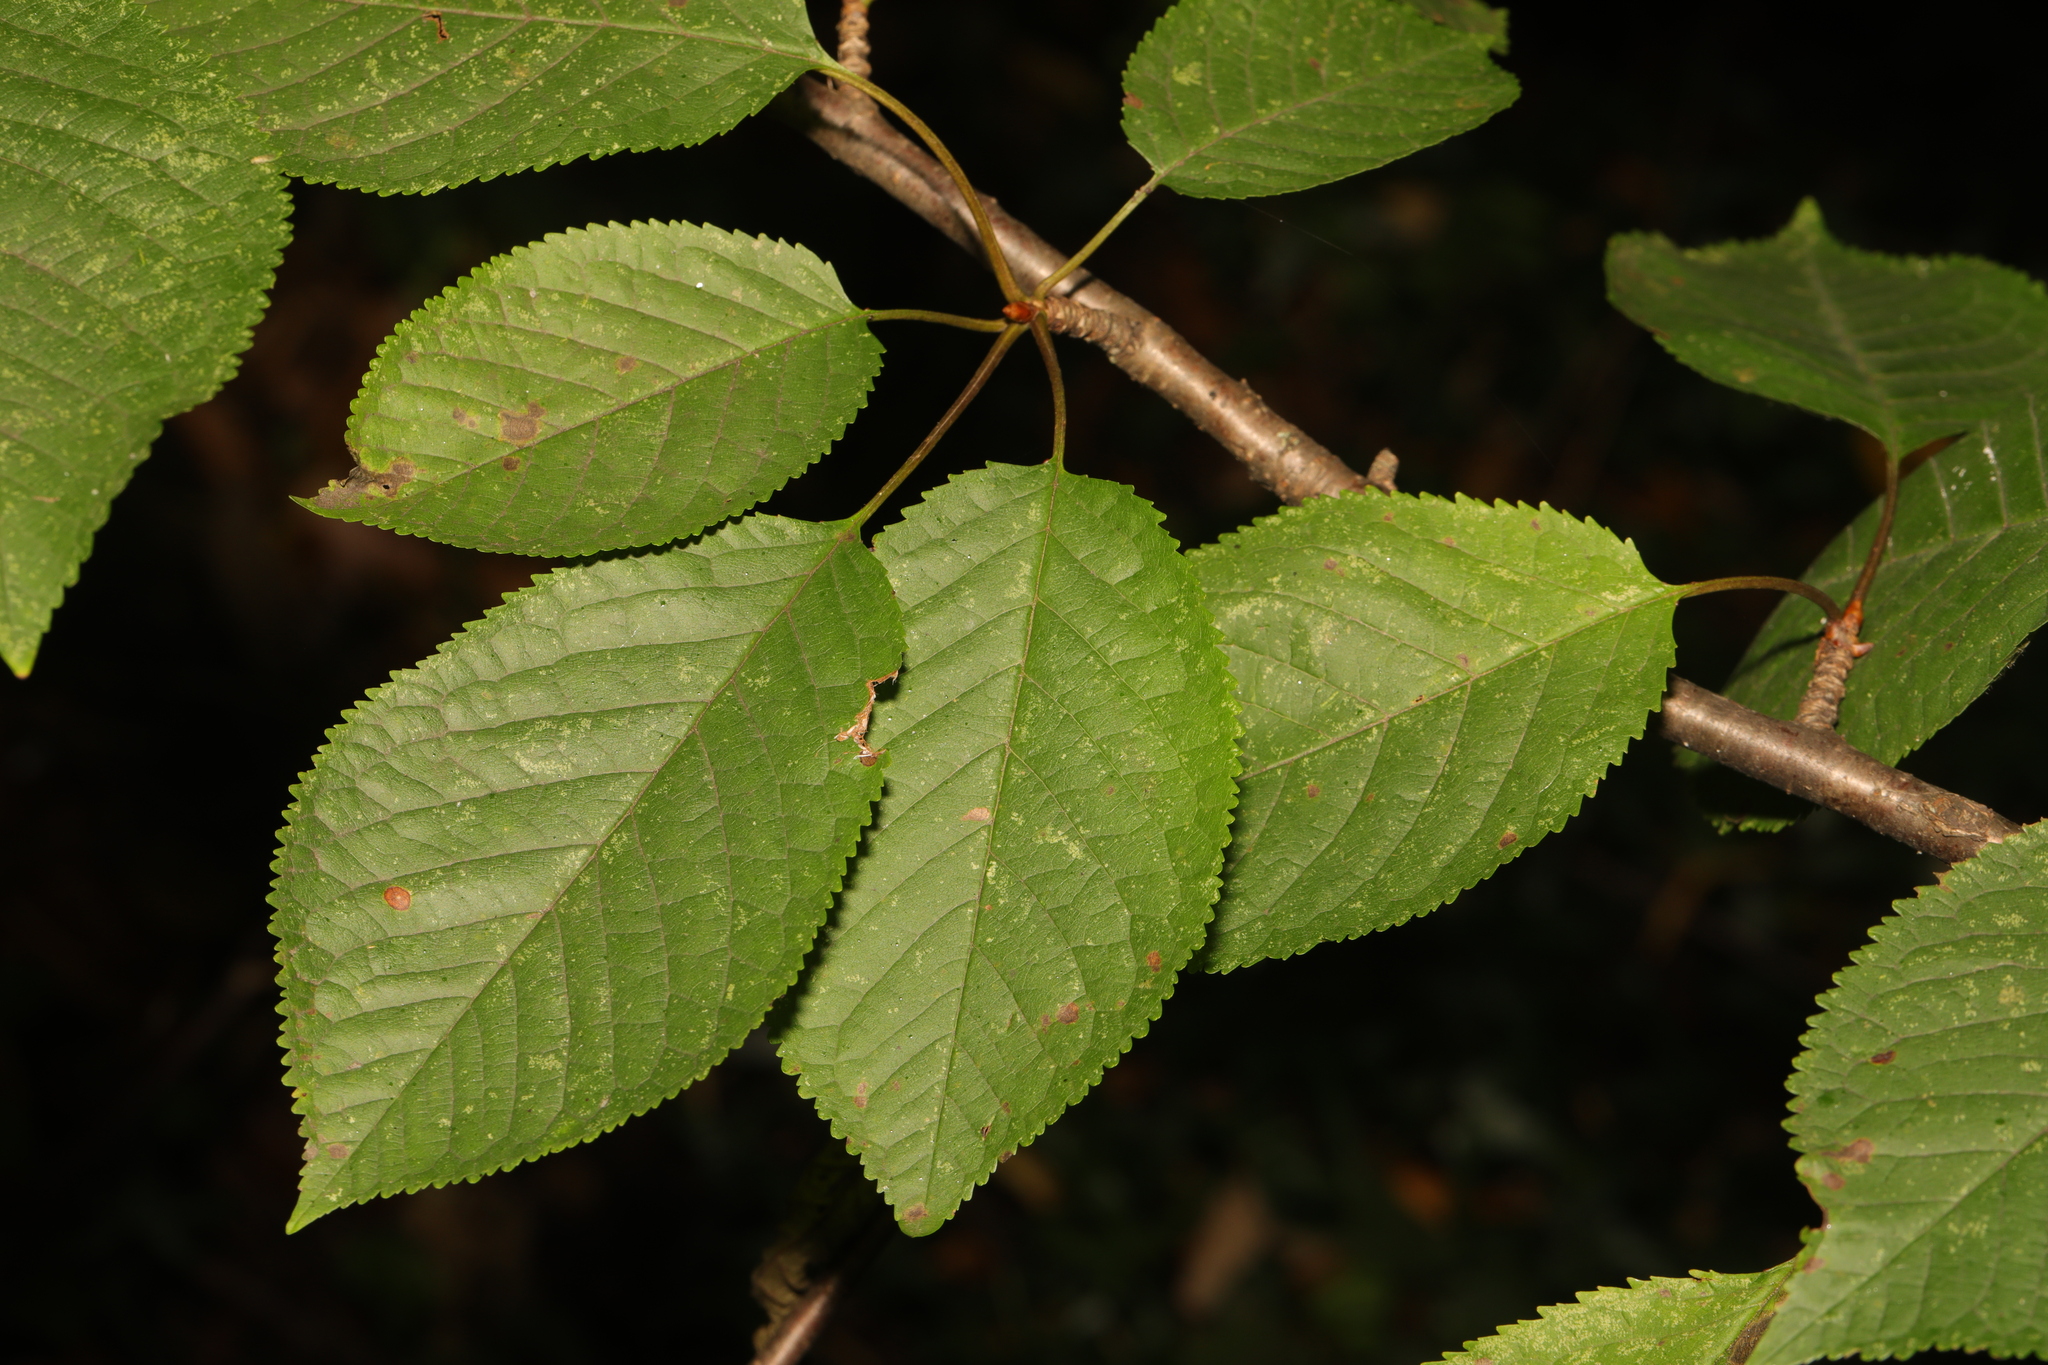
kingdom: Plantae
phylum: Tracheophyta
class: Magnoliopsida
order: Rosales
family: Rosaceae
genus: Prunus
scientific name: Prunus avium
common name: Sweet cherry
